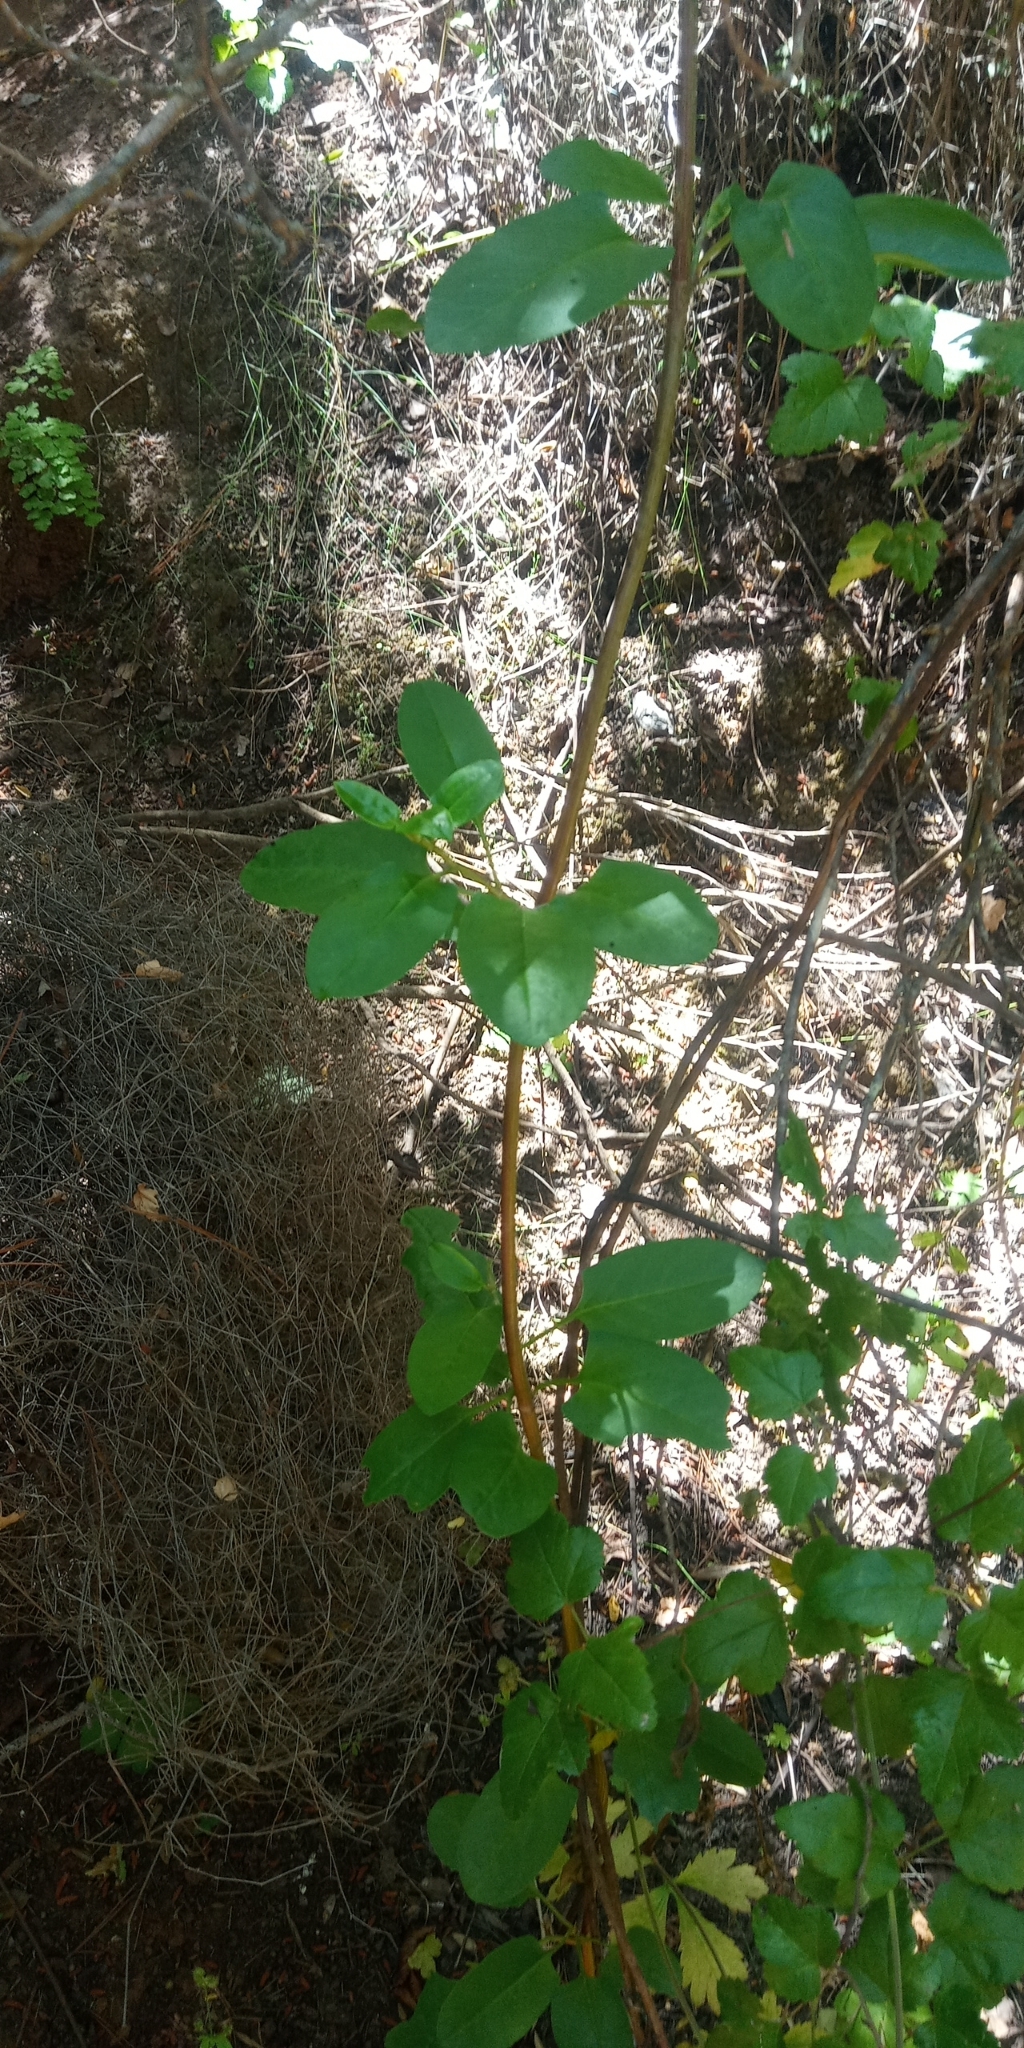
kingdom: Plantae
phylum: Tracheophyta
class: Magnoliopsida
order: Caryophyllales
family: Polygonaceae
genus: Muehlenbeckia
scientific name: Muehlenbeckia hastulata
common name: Wirevine
